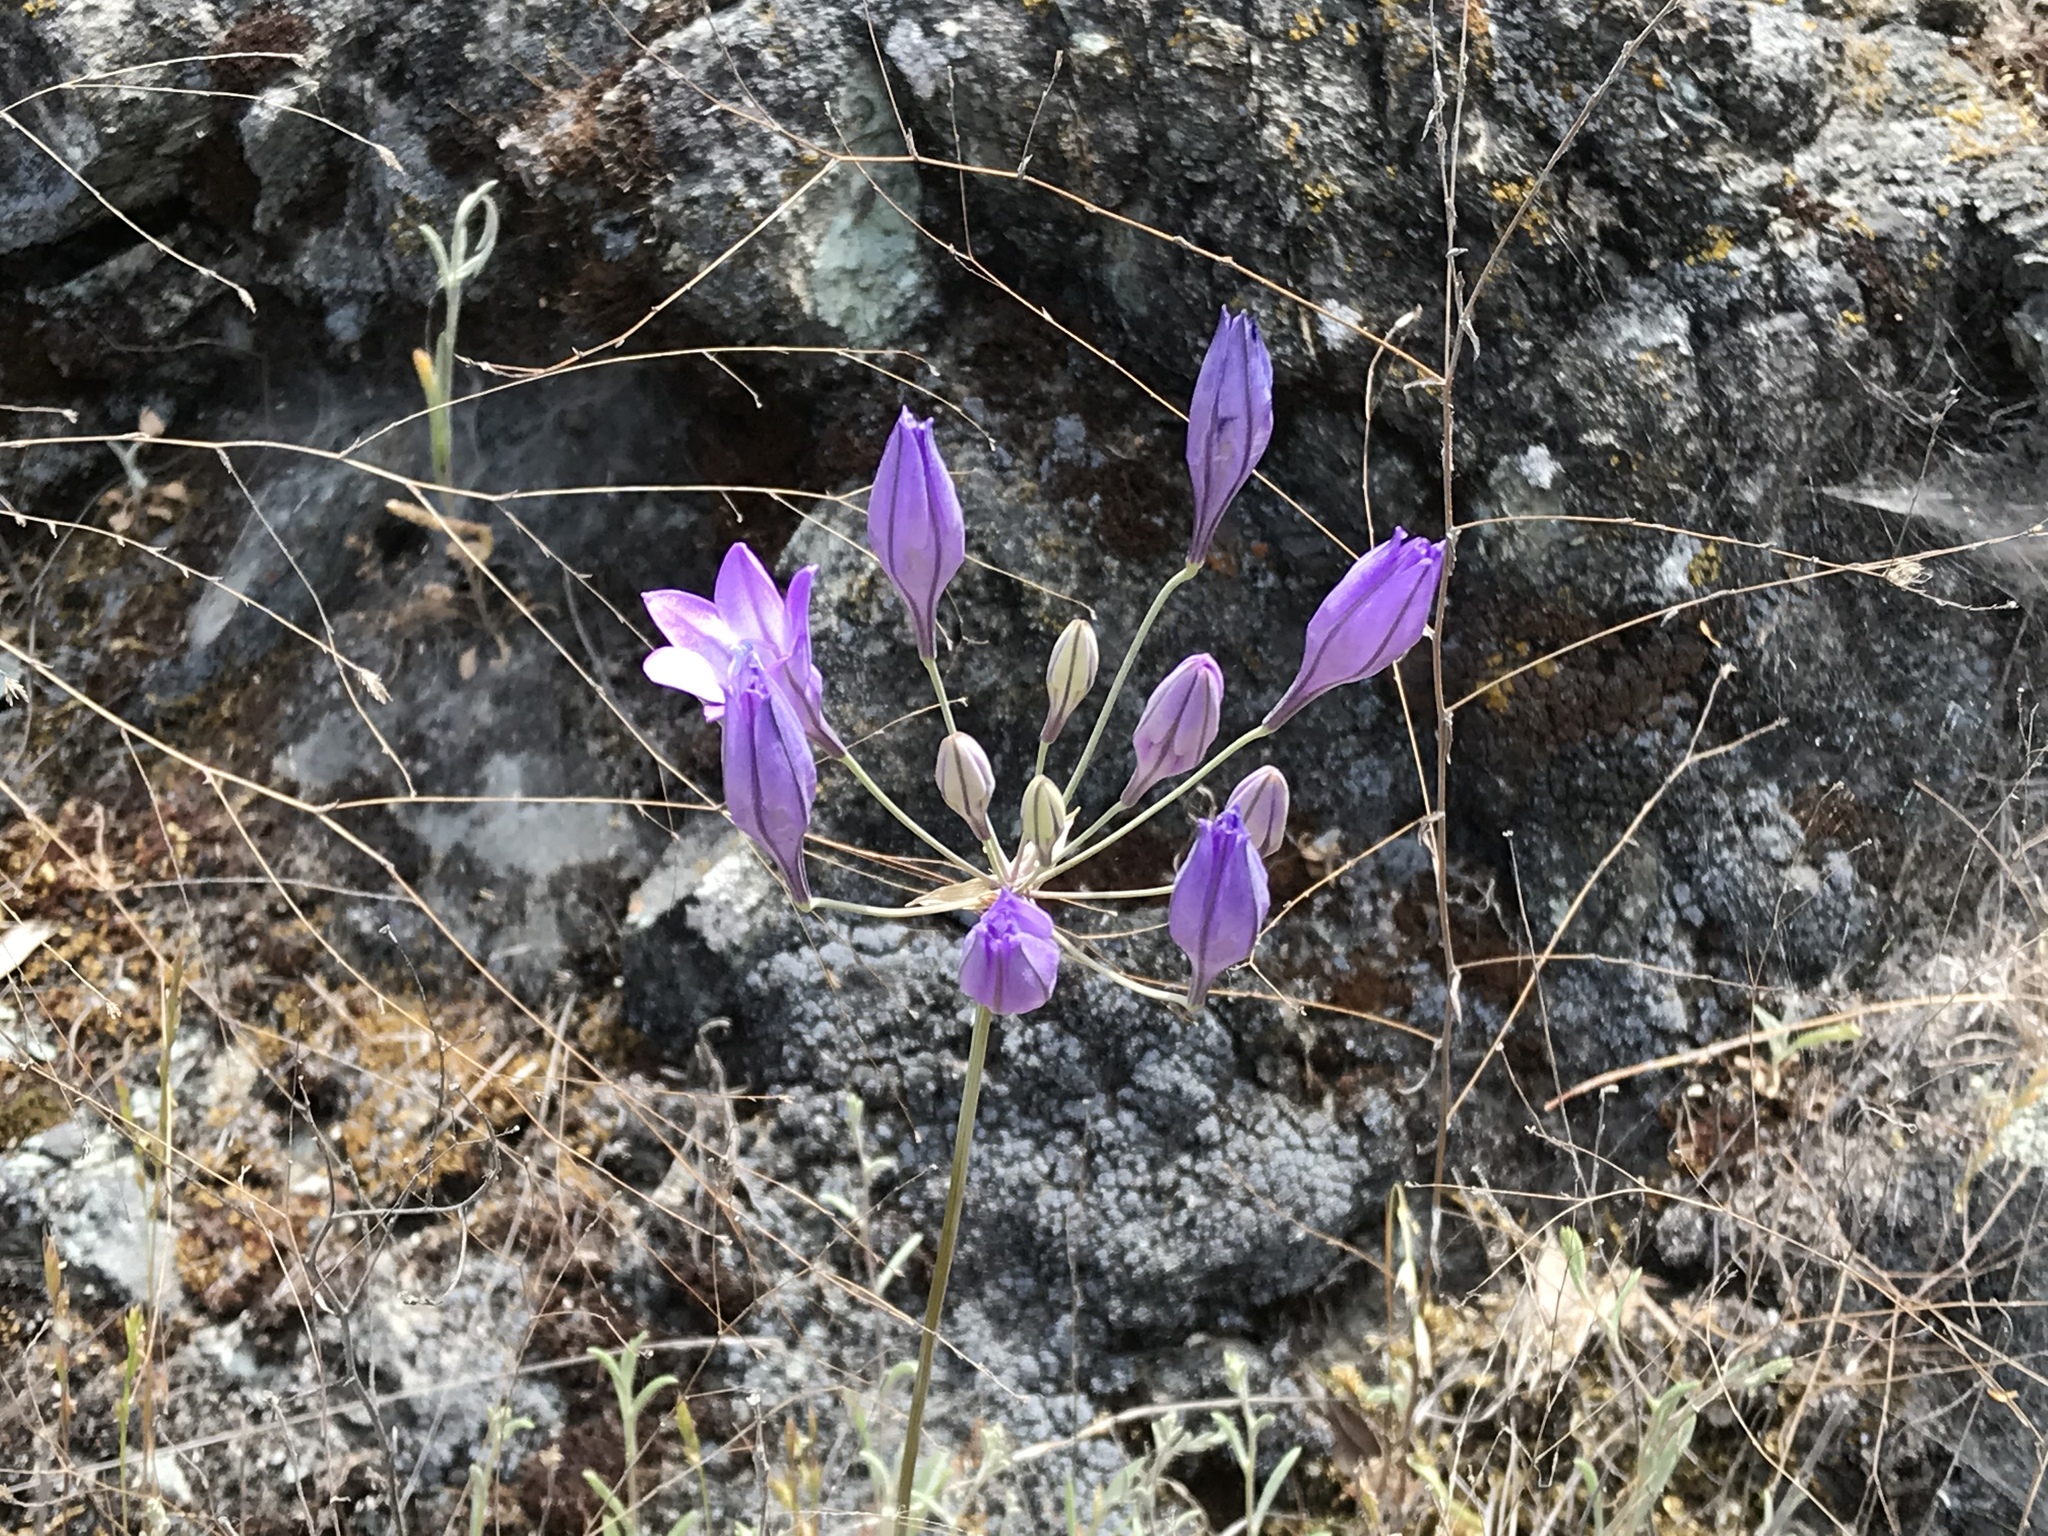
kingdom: Plantae
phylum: Tracheophyta
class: Liliopsida
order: Asparagales
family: Asparagaceae
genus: Triteleia
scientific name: Triteleia laxa
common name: Triplet-lily
